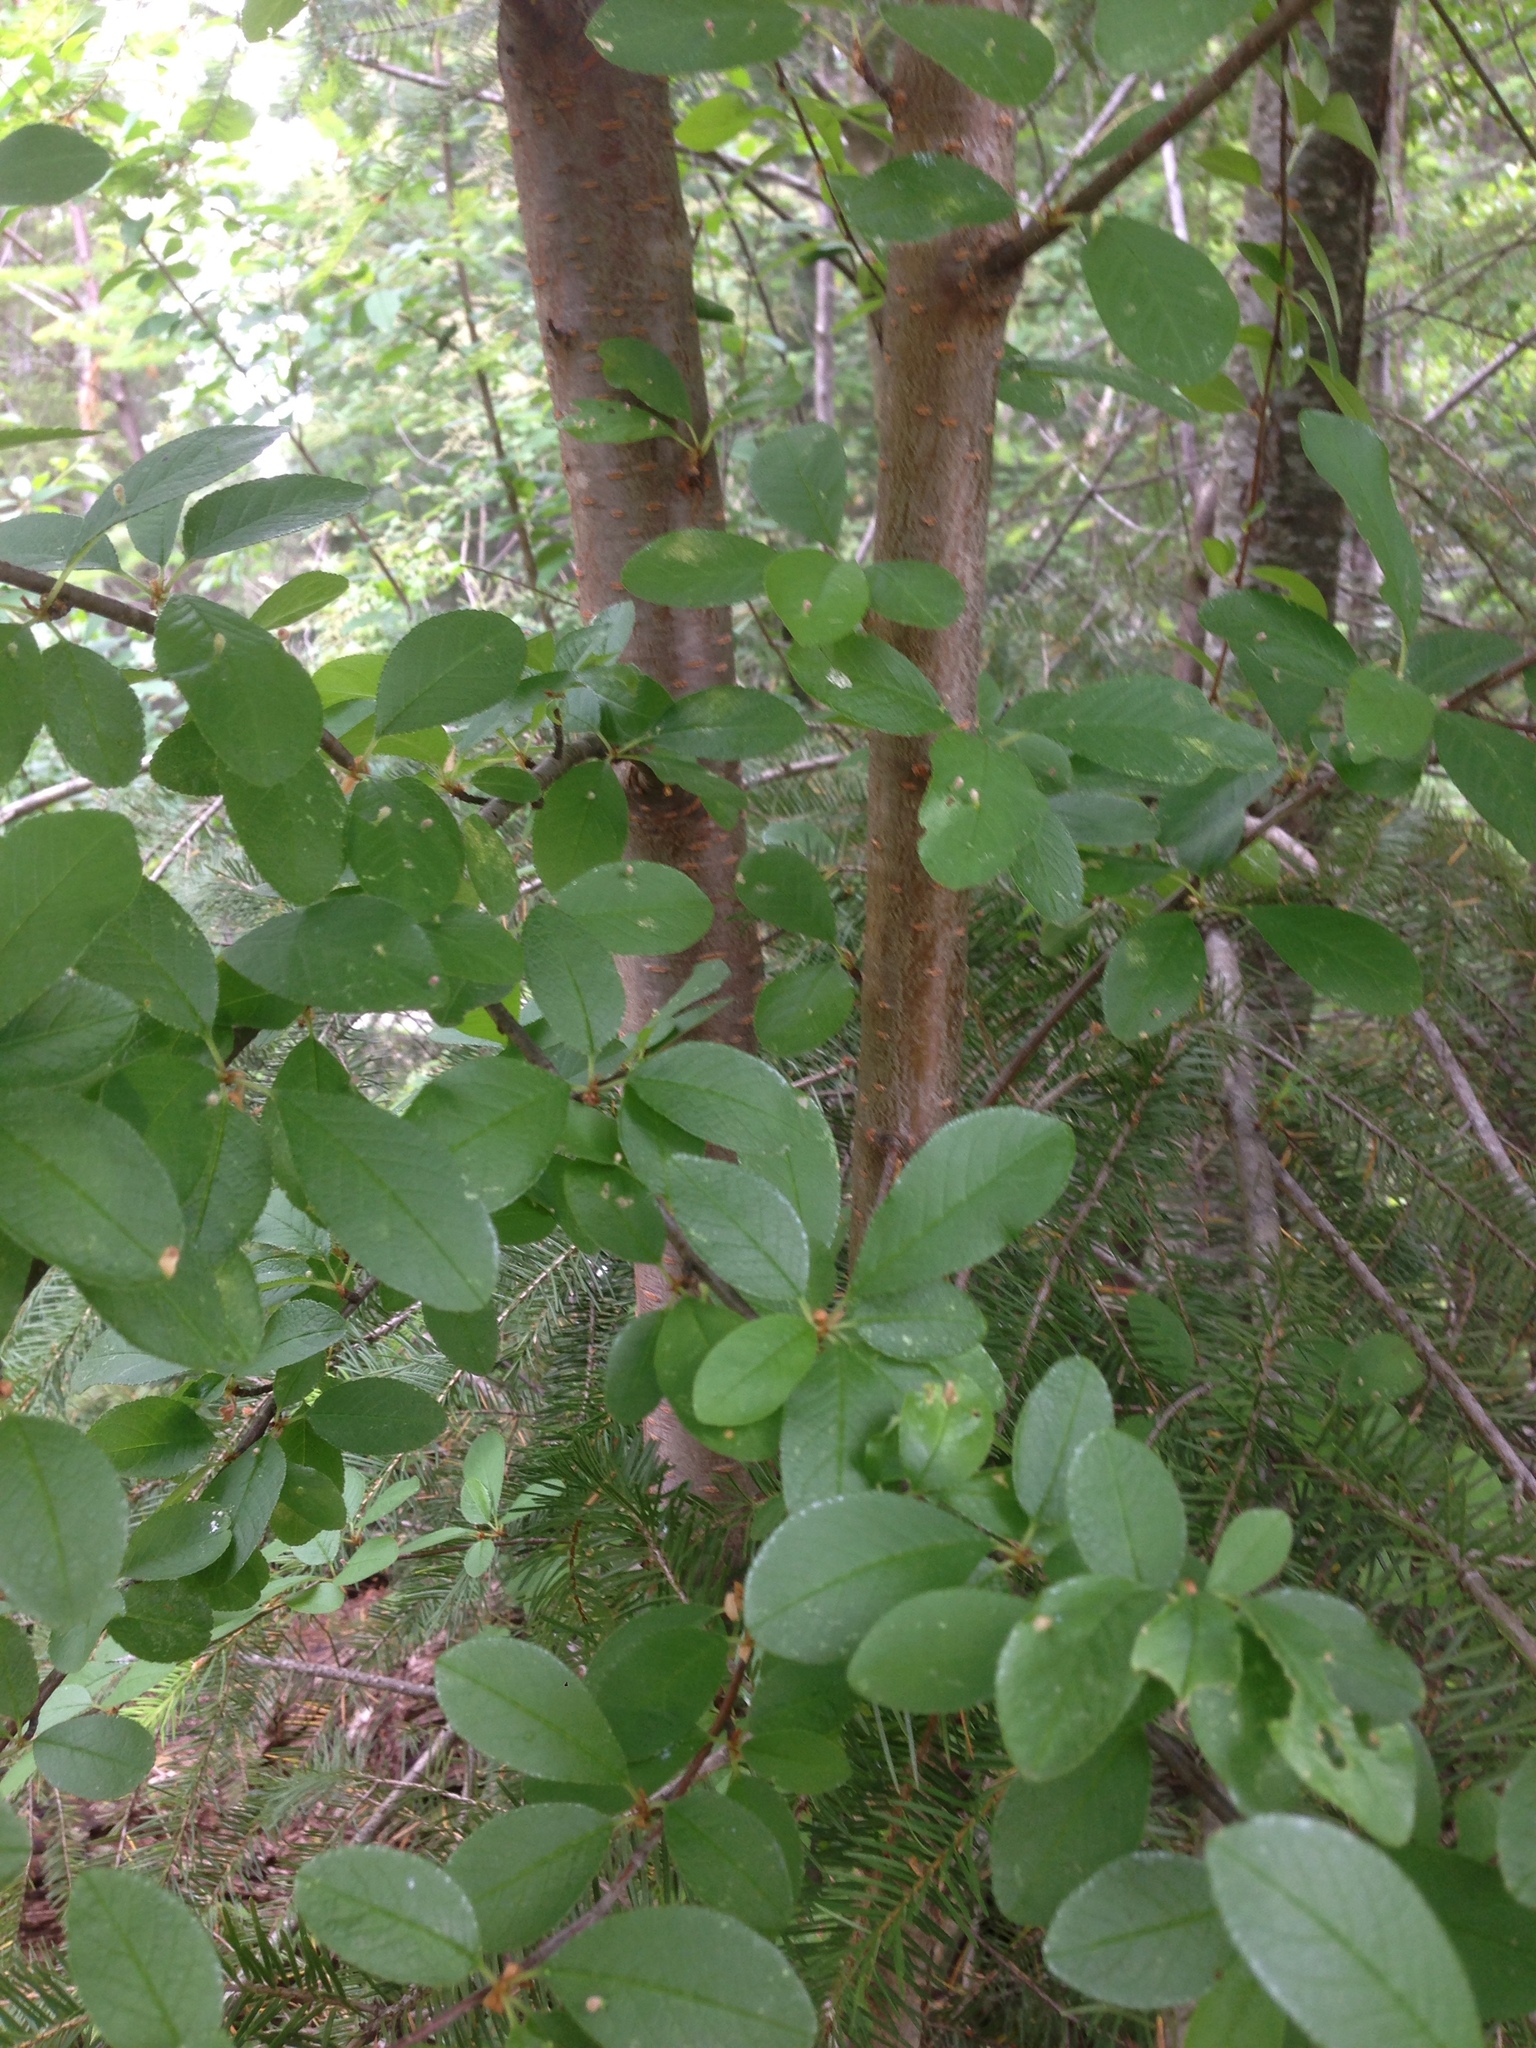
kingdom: Plantae
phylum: Tracheophyta
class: Magnoliopsida
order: Rosales
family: Rosaceae
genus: Prunus
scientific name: Prunus emarginata
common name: Bitter cherry
